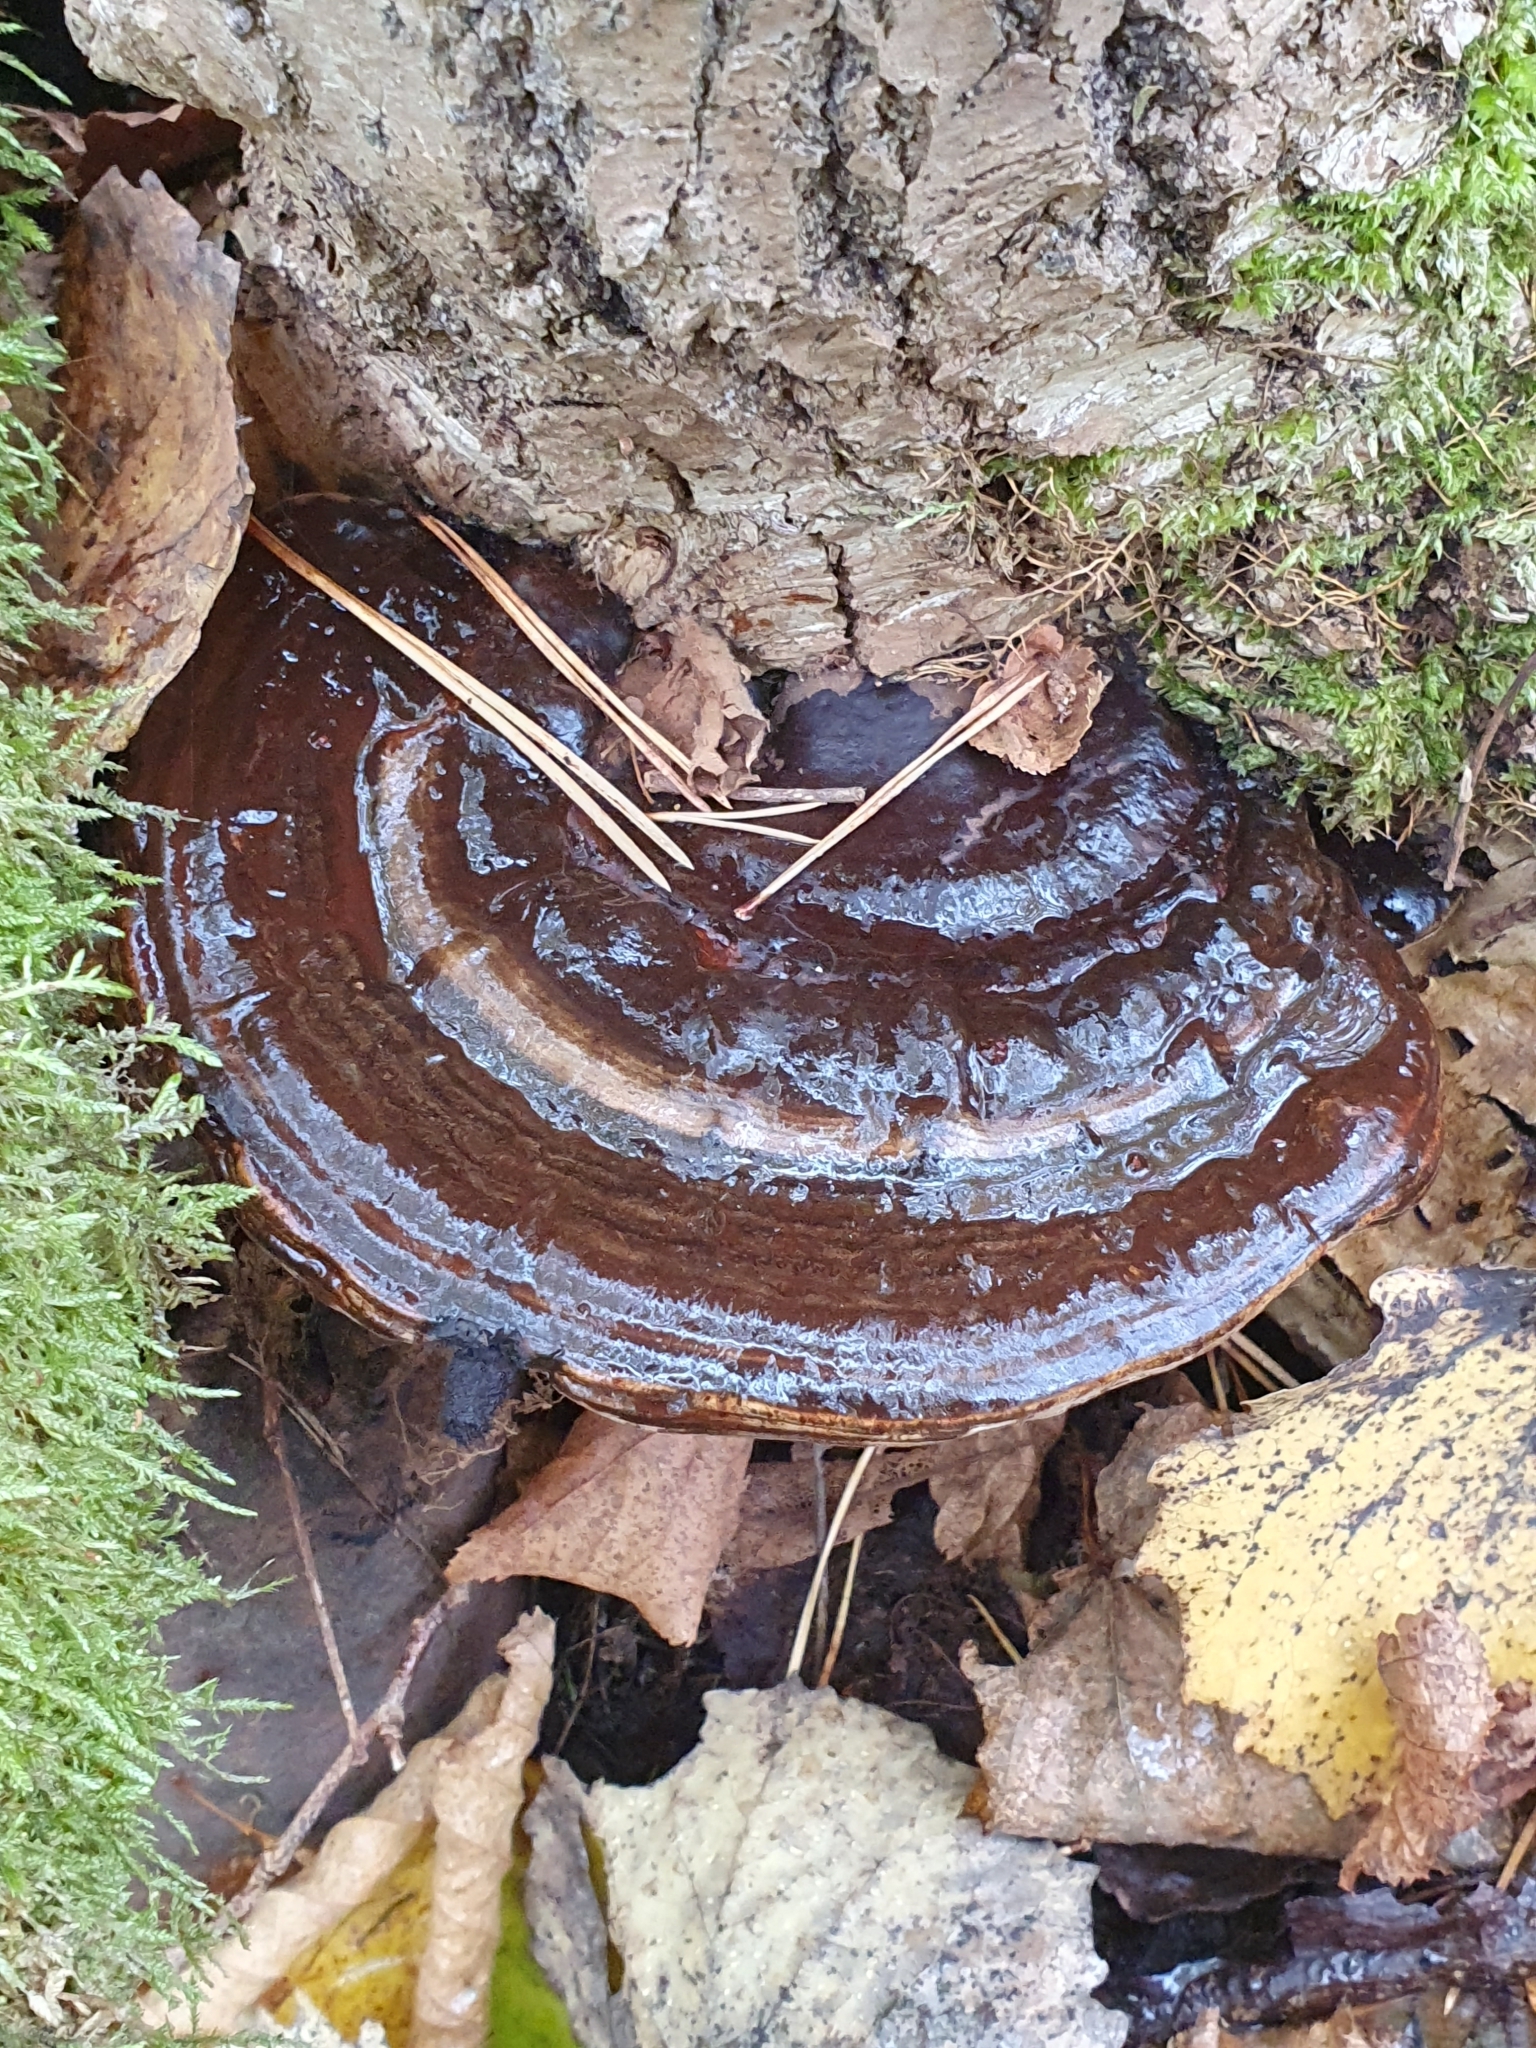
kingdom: Fungi
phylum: Basidiomycota
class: Agaricomycetes
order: Polyporales
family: Polyporaceae
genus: Ganoderma
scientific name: Ganoderma applanatum
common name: Artist's bracket
